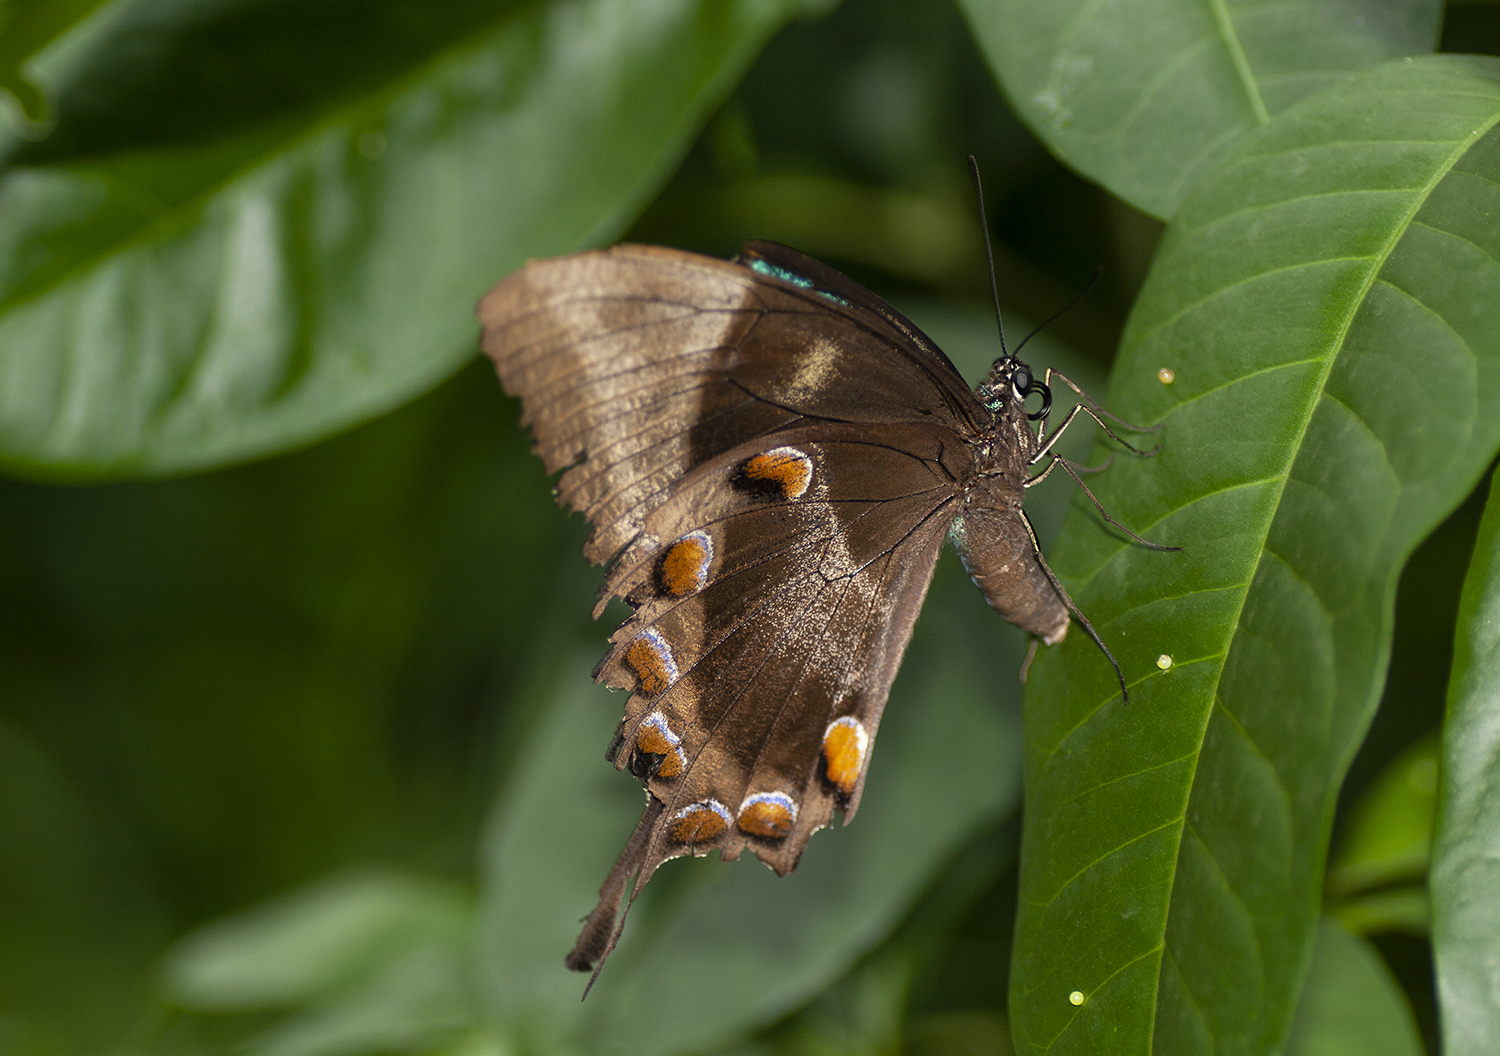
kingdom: Animalia
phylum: Arthropoda
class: Insecta
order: Lepidoptera
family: Papilionidae
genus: Papilio
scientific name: Papilio ulysses
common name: Blue emperor
